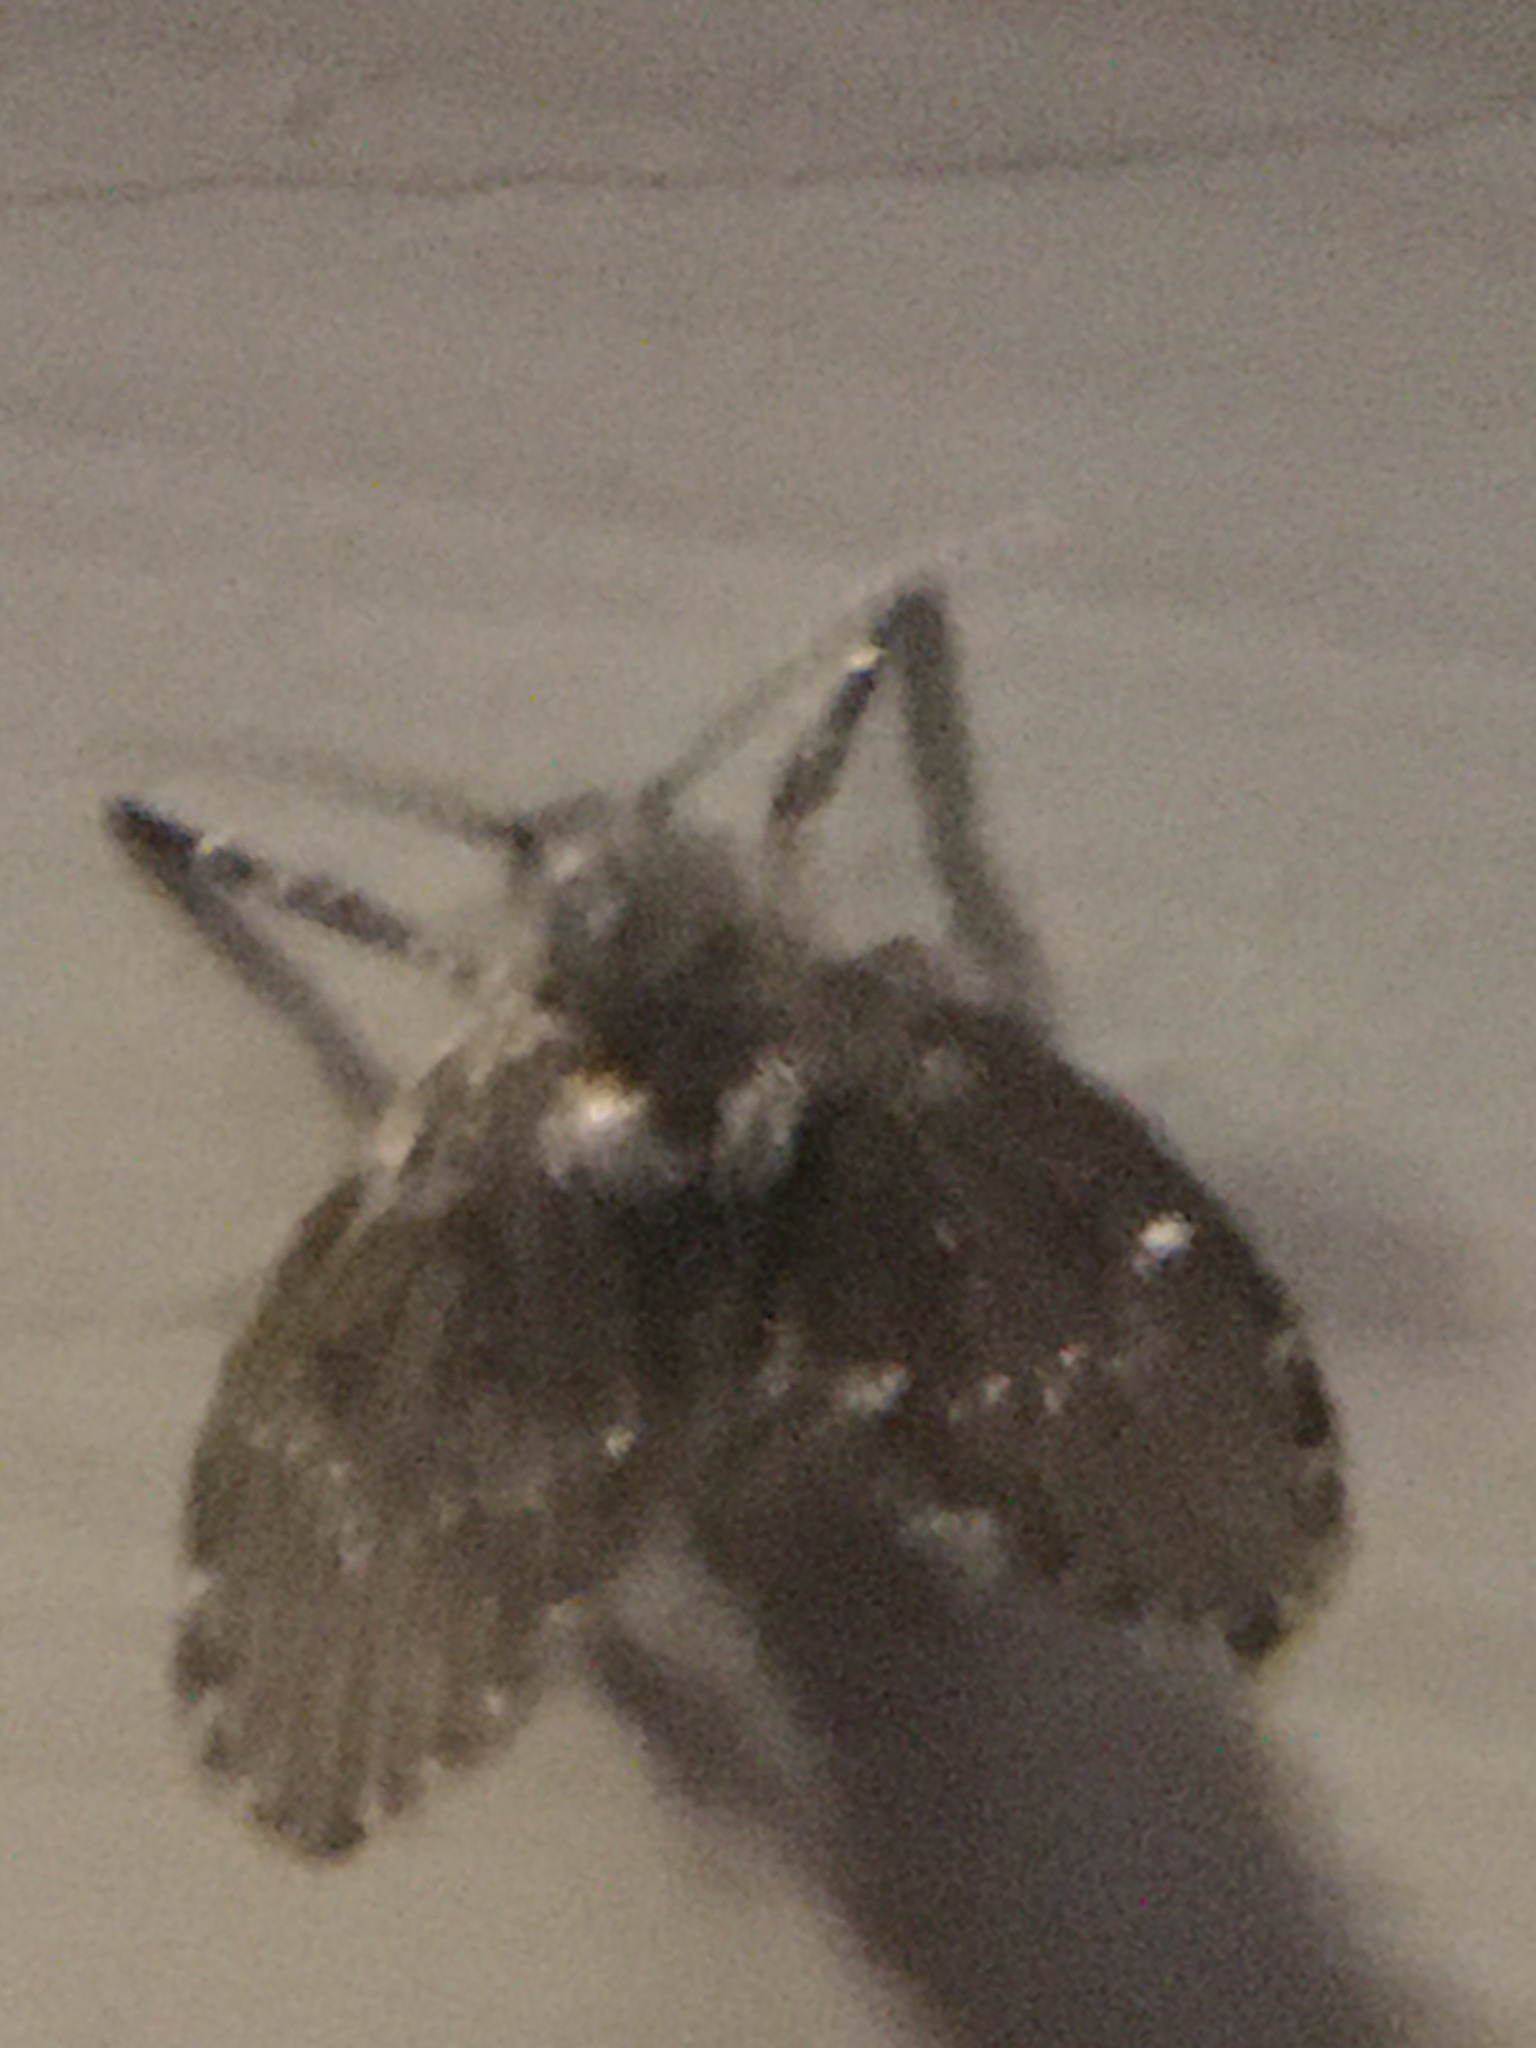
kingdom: Animalia
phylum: Arthropoda
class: Insecta
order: Diptera
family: Psychodidae
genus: Clogmia
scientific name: Clogmia albipunctatus
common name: White-spotted moth fly
